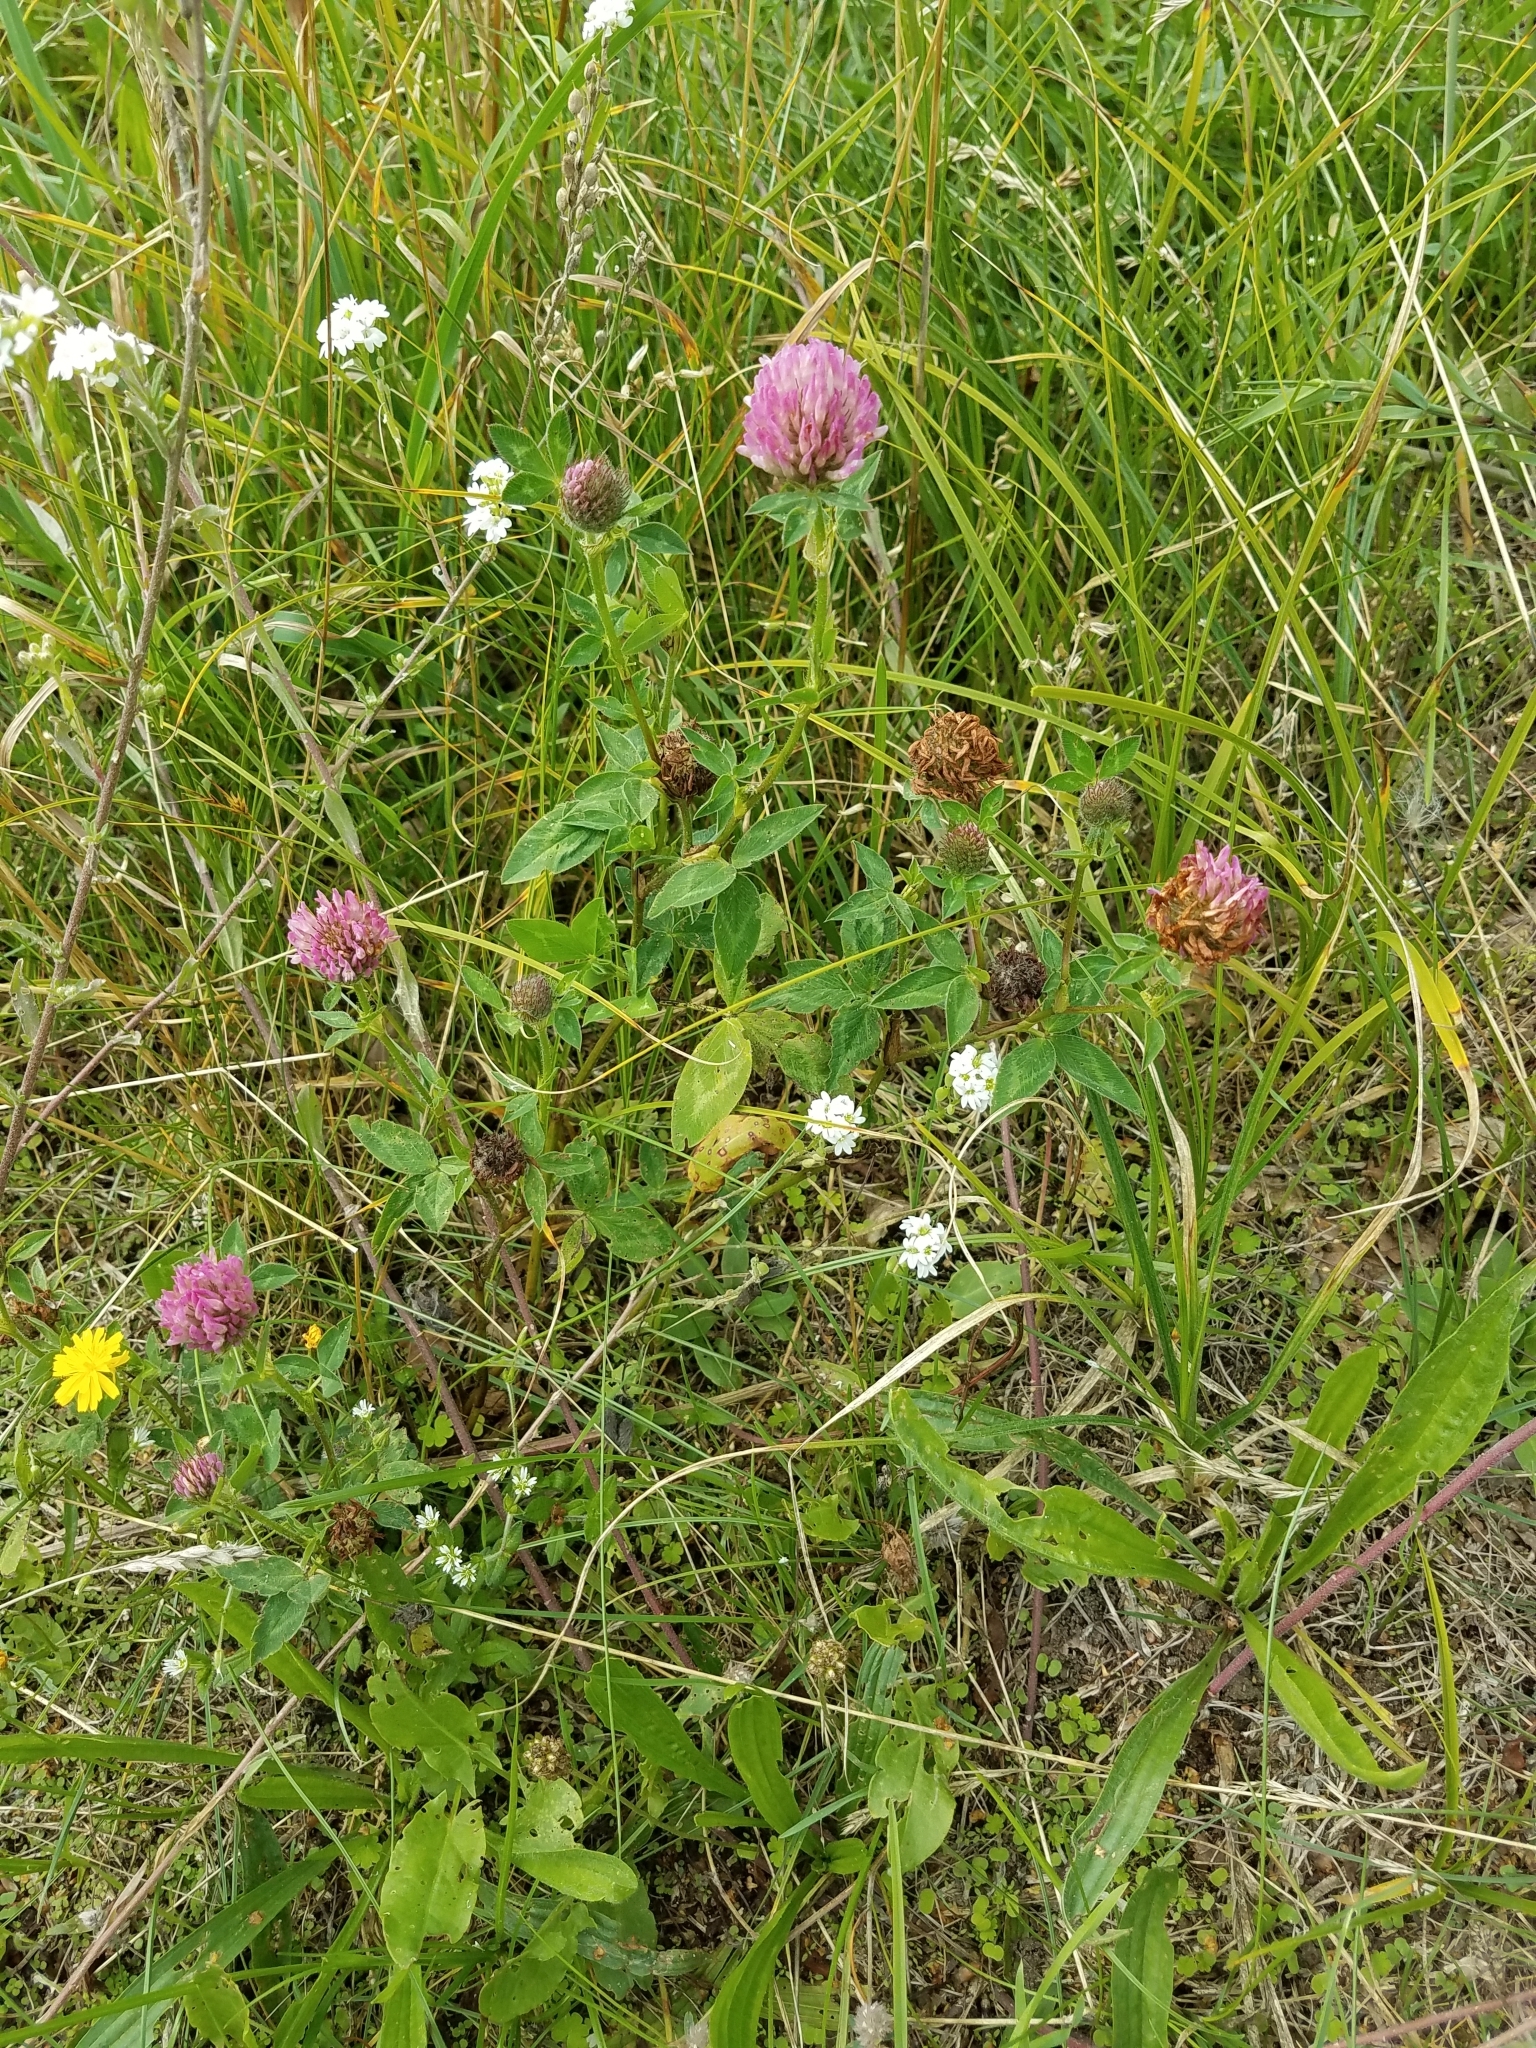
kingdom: Plantae
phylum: Tracheophyta
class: Magnoliopsida
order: Fabales
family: Fabaceae
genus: Trifolium
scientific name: Trifolium pratense
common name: Red clover
